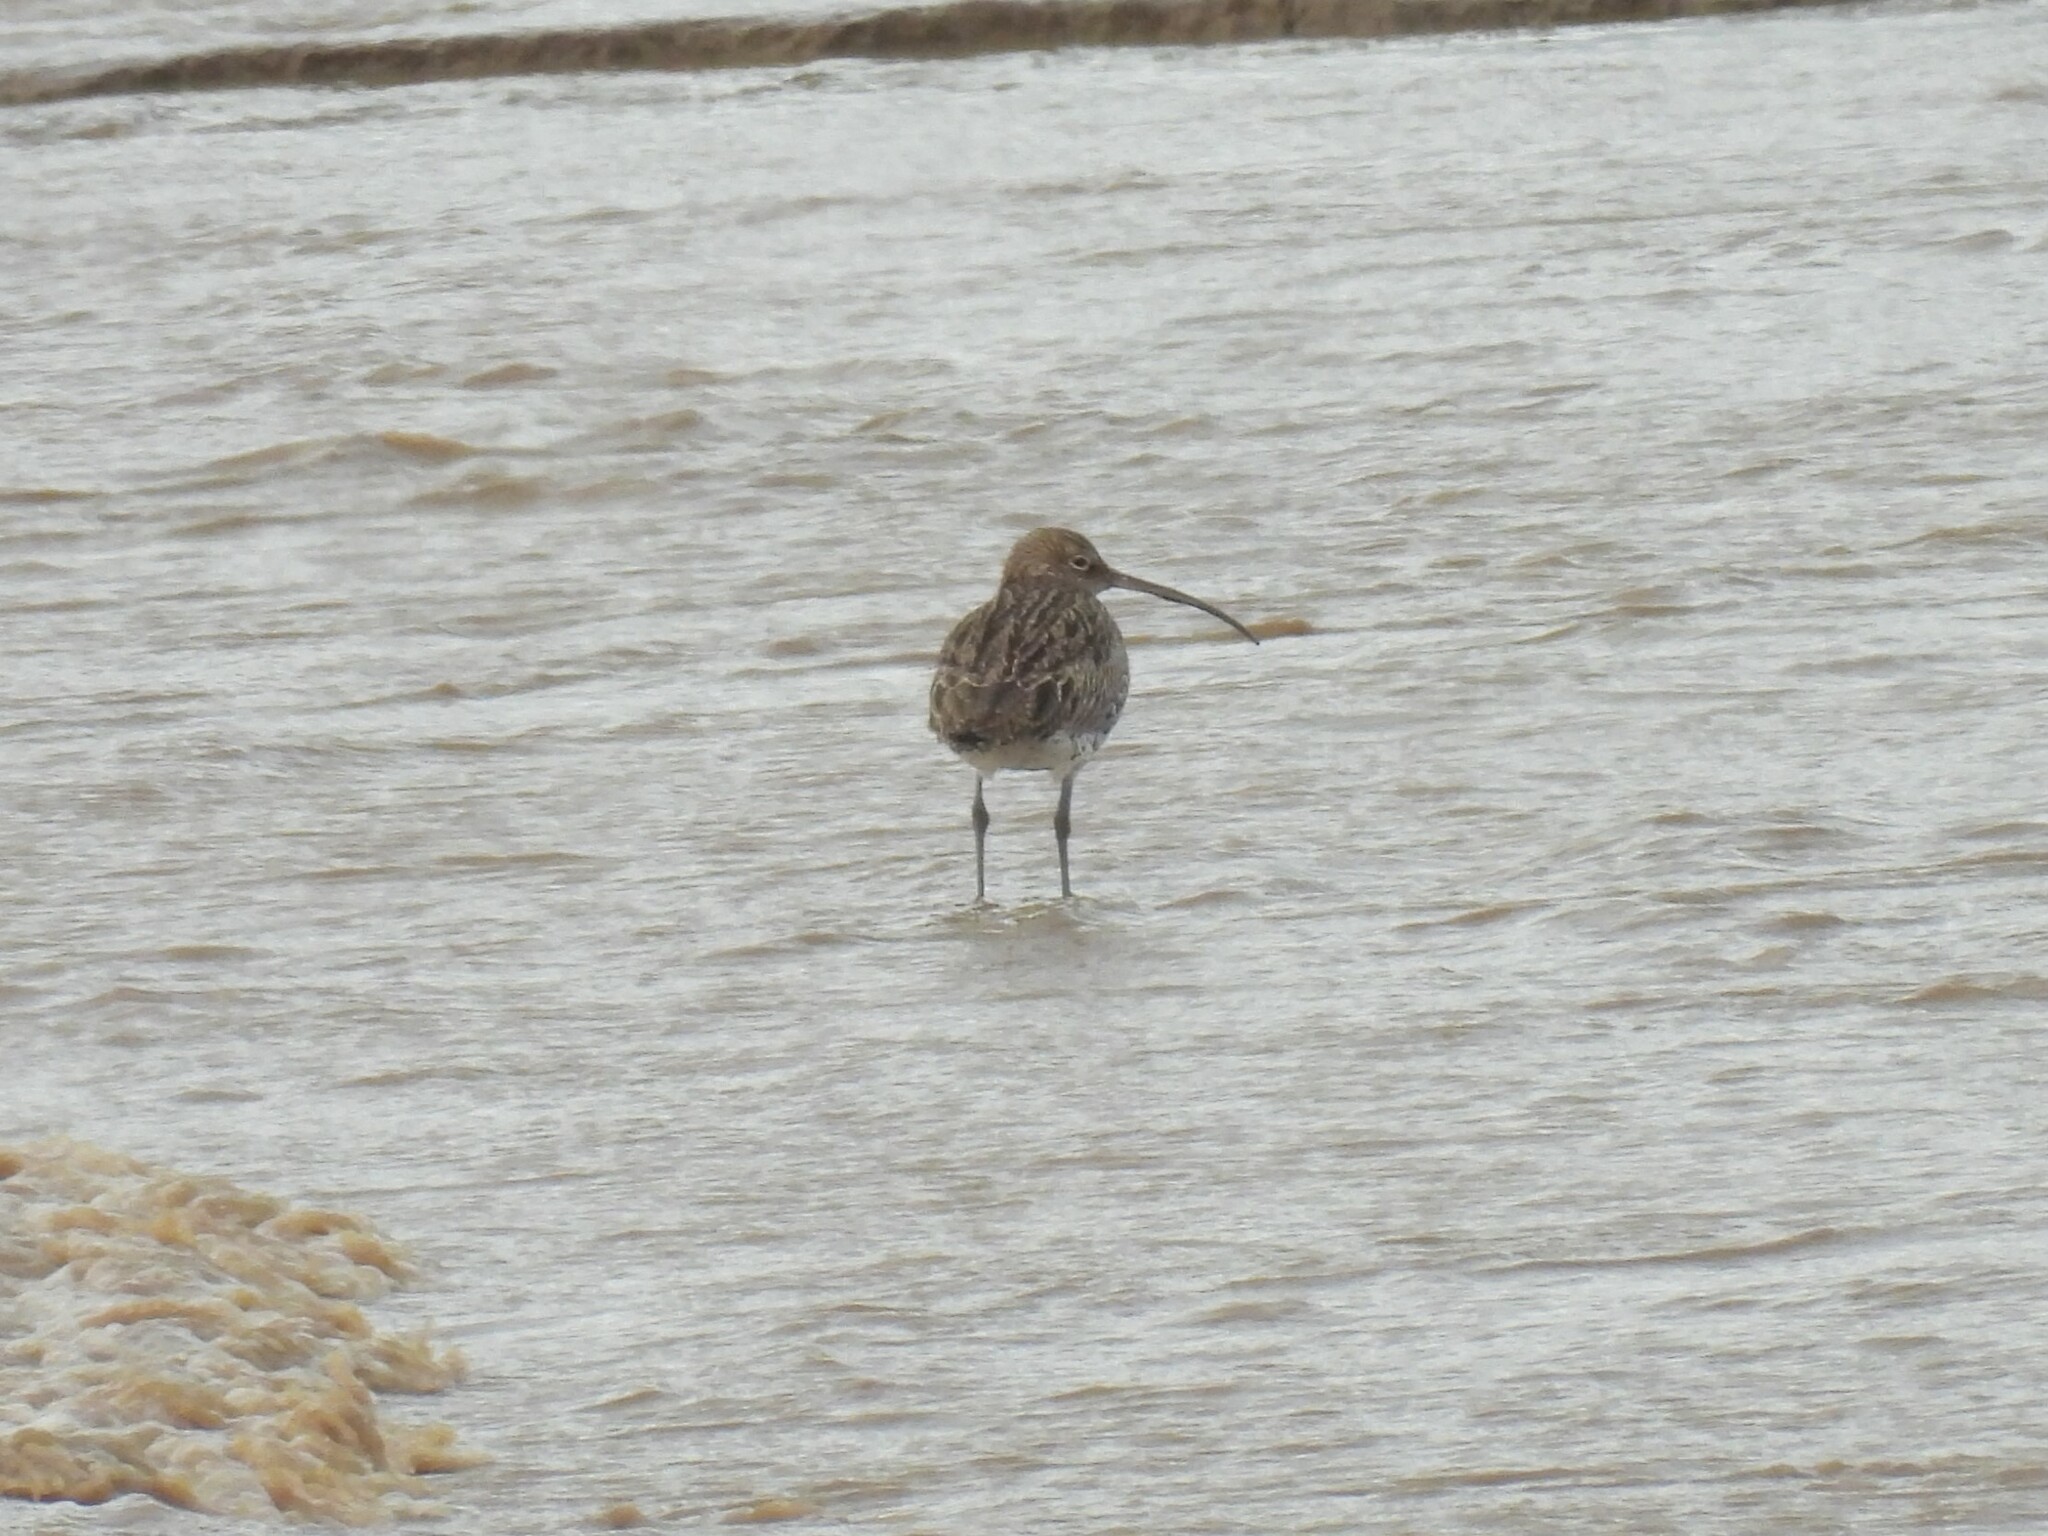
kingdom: Animalia
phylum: Chordata
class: Aves
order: Charadriiformes
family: Scolopacidae
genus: Numenius
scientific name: Numenius arquata
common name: Eurasian curlew
